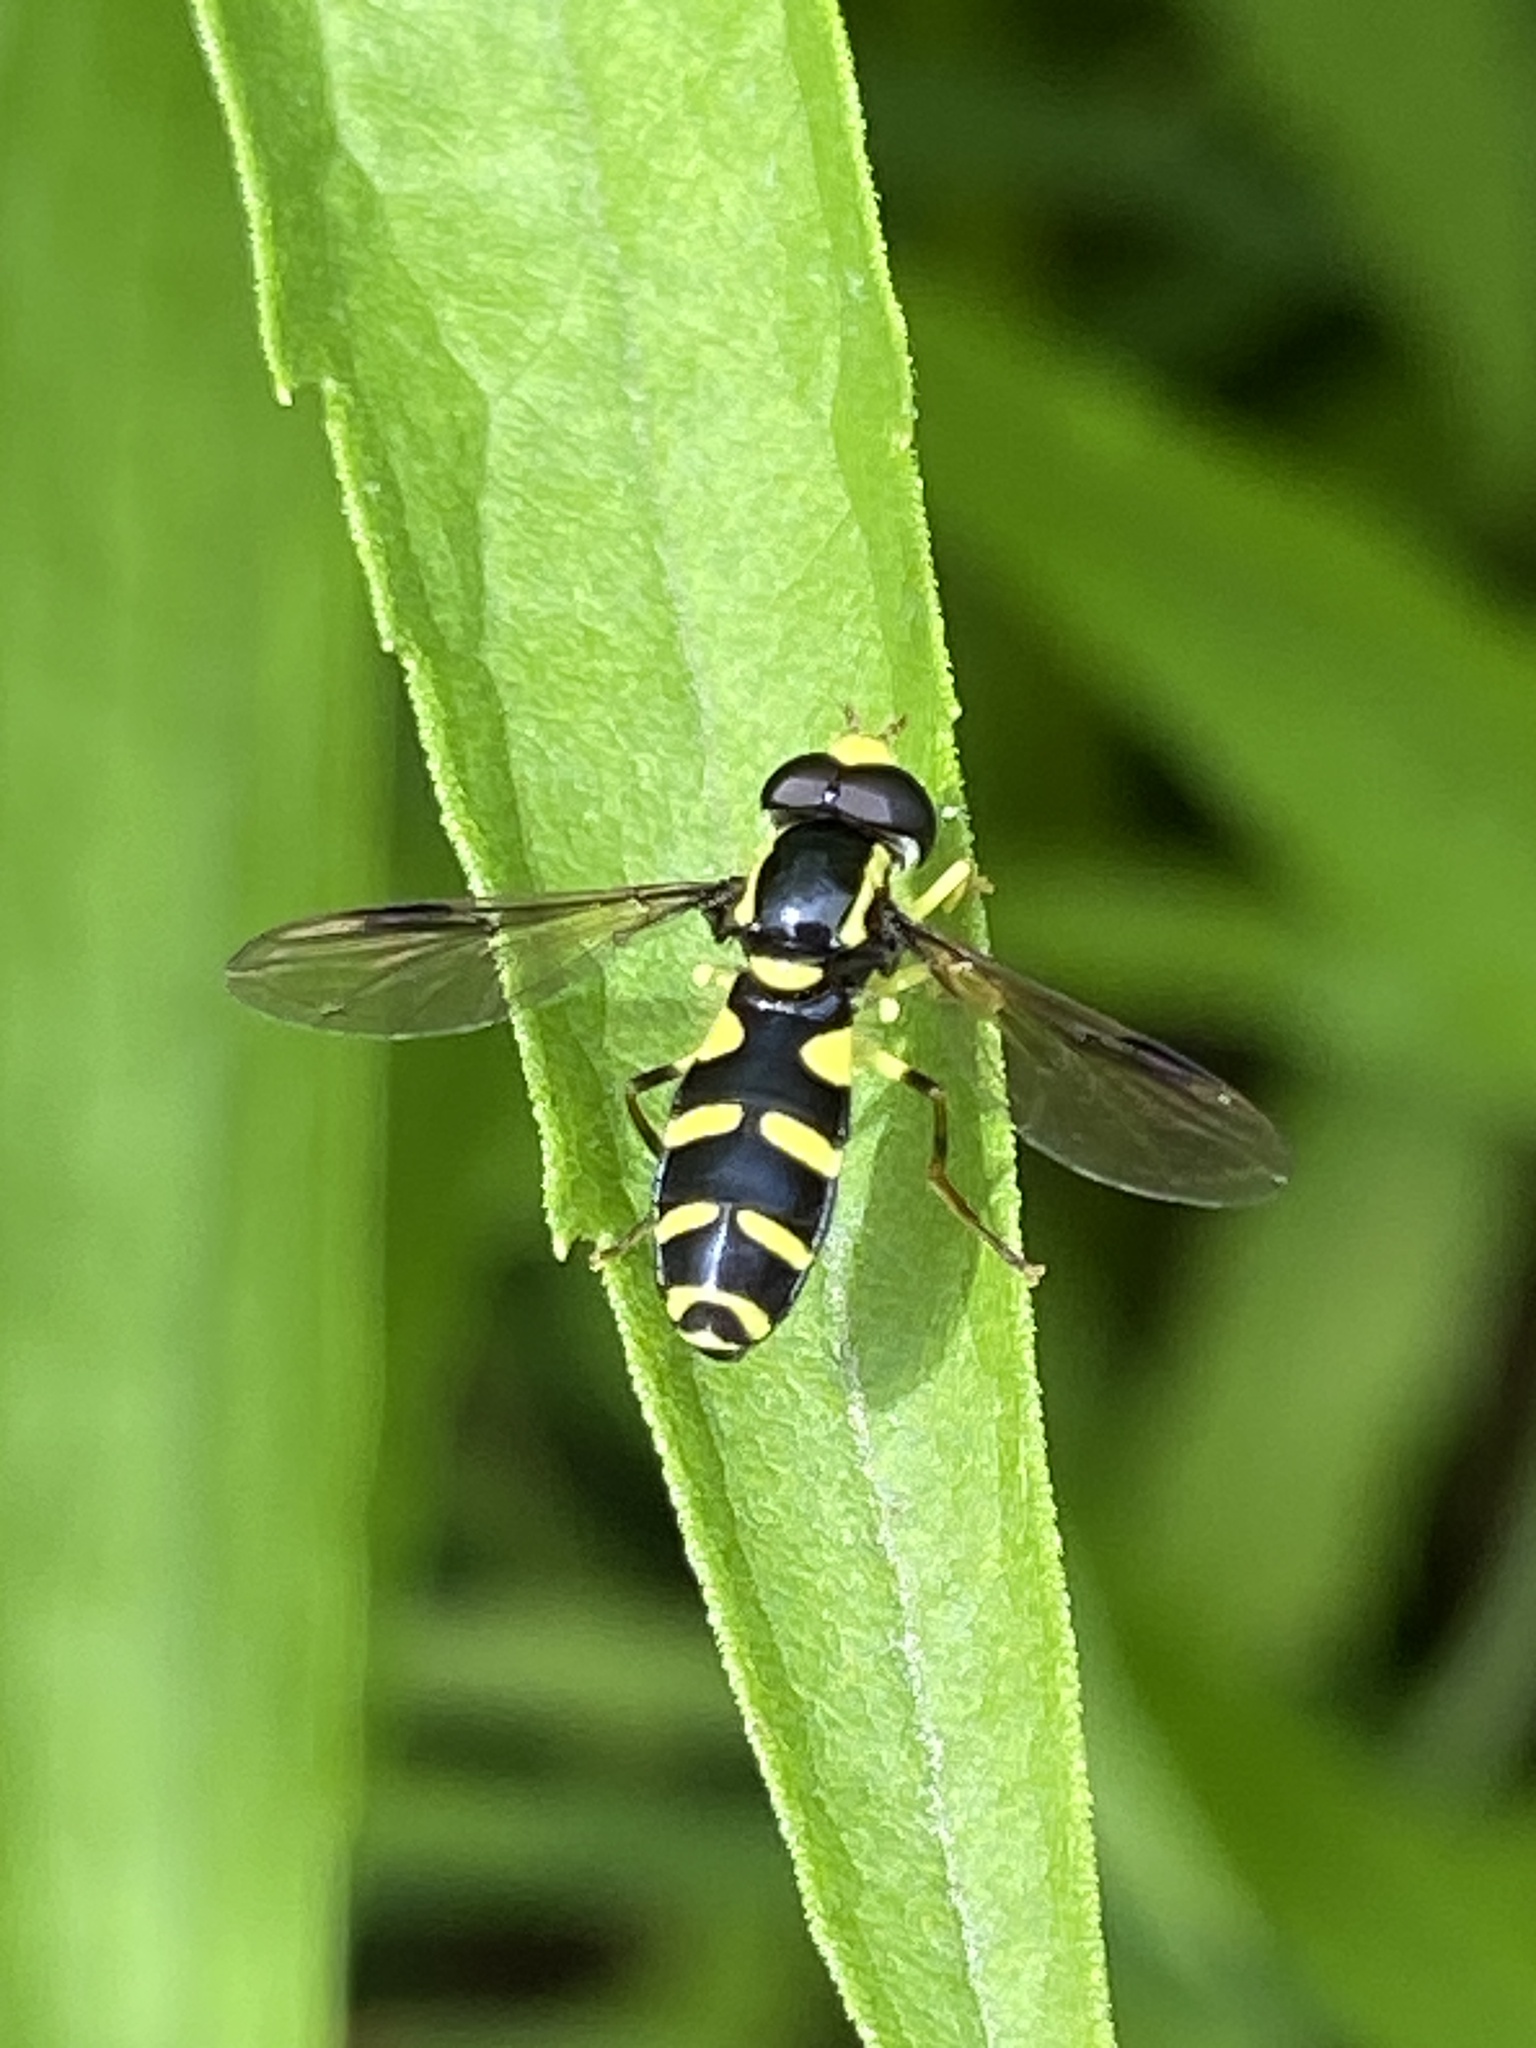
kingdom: Animalia
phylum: Arthropoda
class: Insecta
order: Diptera
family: Syrphidae
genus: Philhelius
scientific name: Philhelius pedissequum
